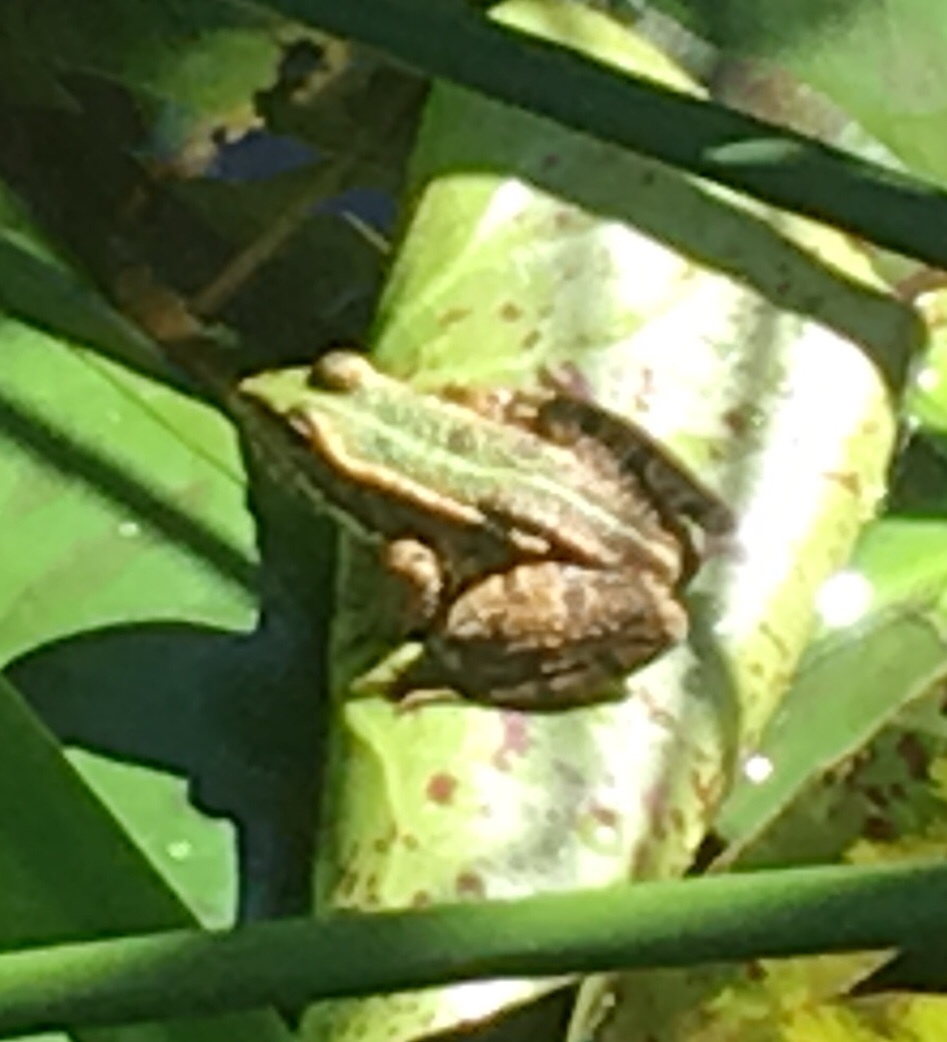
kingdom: Animalia
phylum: Chordata
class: Amphibia
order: Anura
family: Ranidae
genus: Pelophylax
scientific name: Pelophylax perezi
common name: Perez's frog
